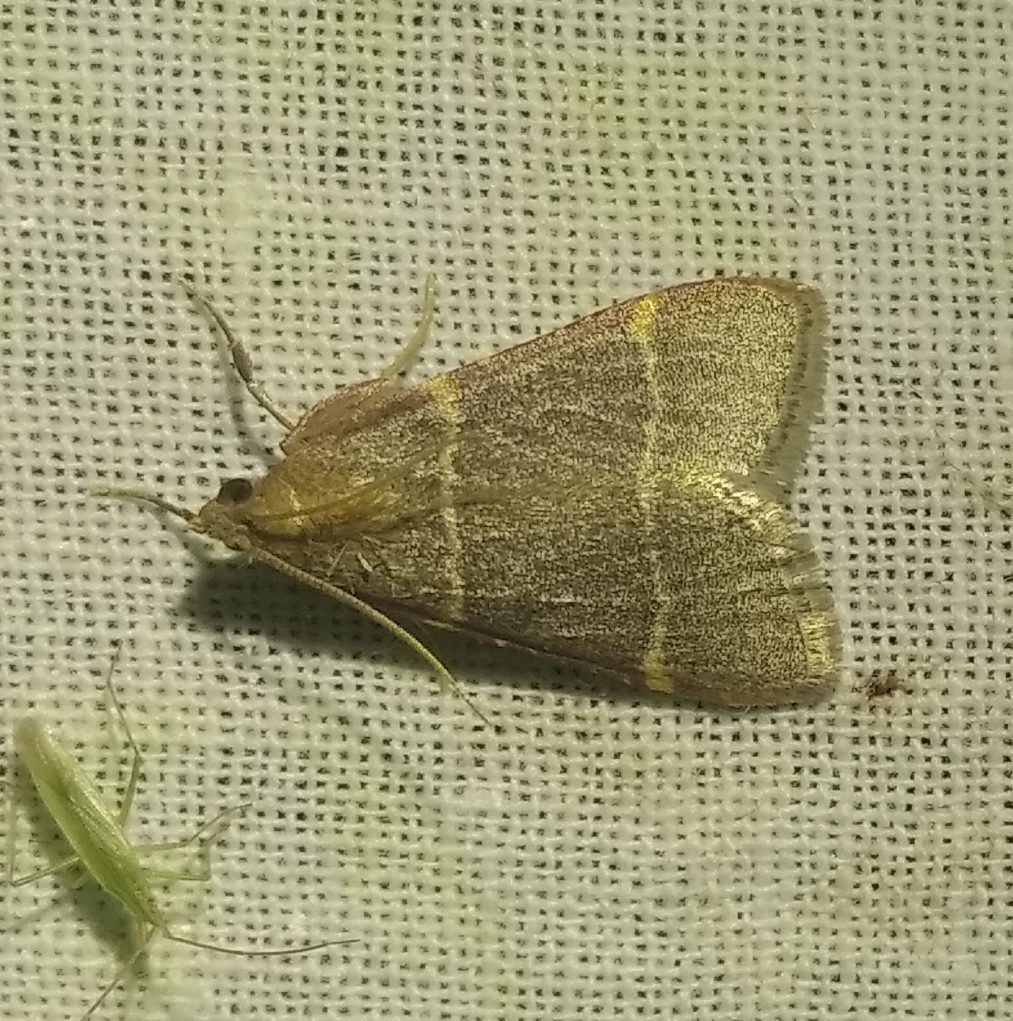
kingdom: Animalia
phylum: Arthropoda
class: Insecta
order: Lepidoptera
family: Pyralidae
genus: Hypsopygia
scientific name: Hypsopygia glaucinalis
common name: Double-striped tabby
